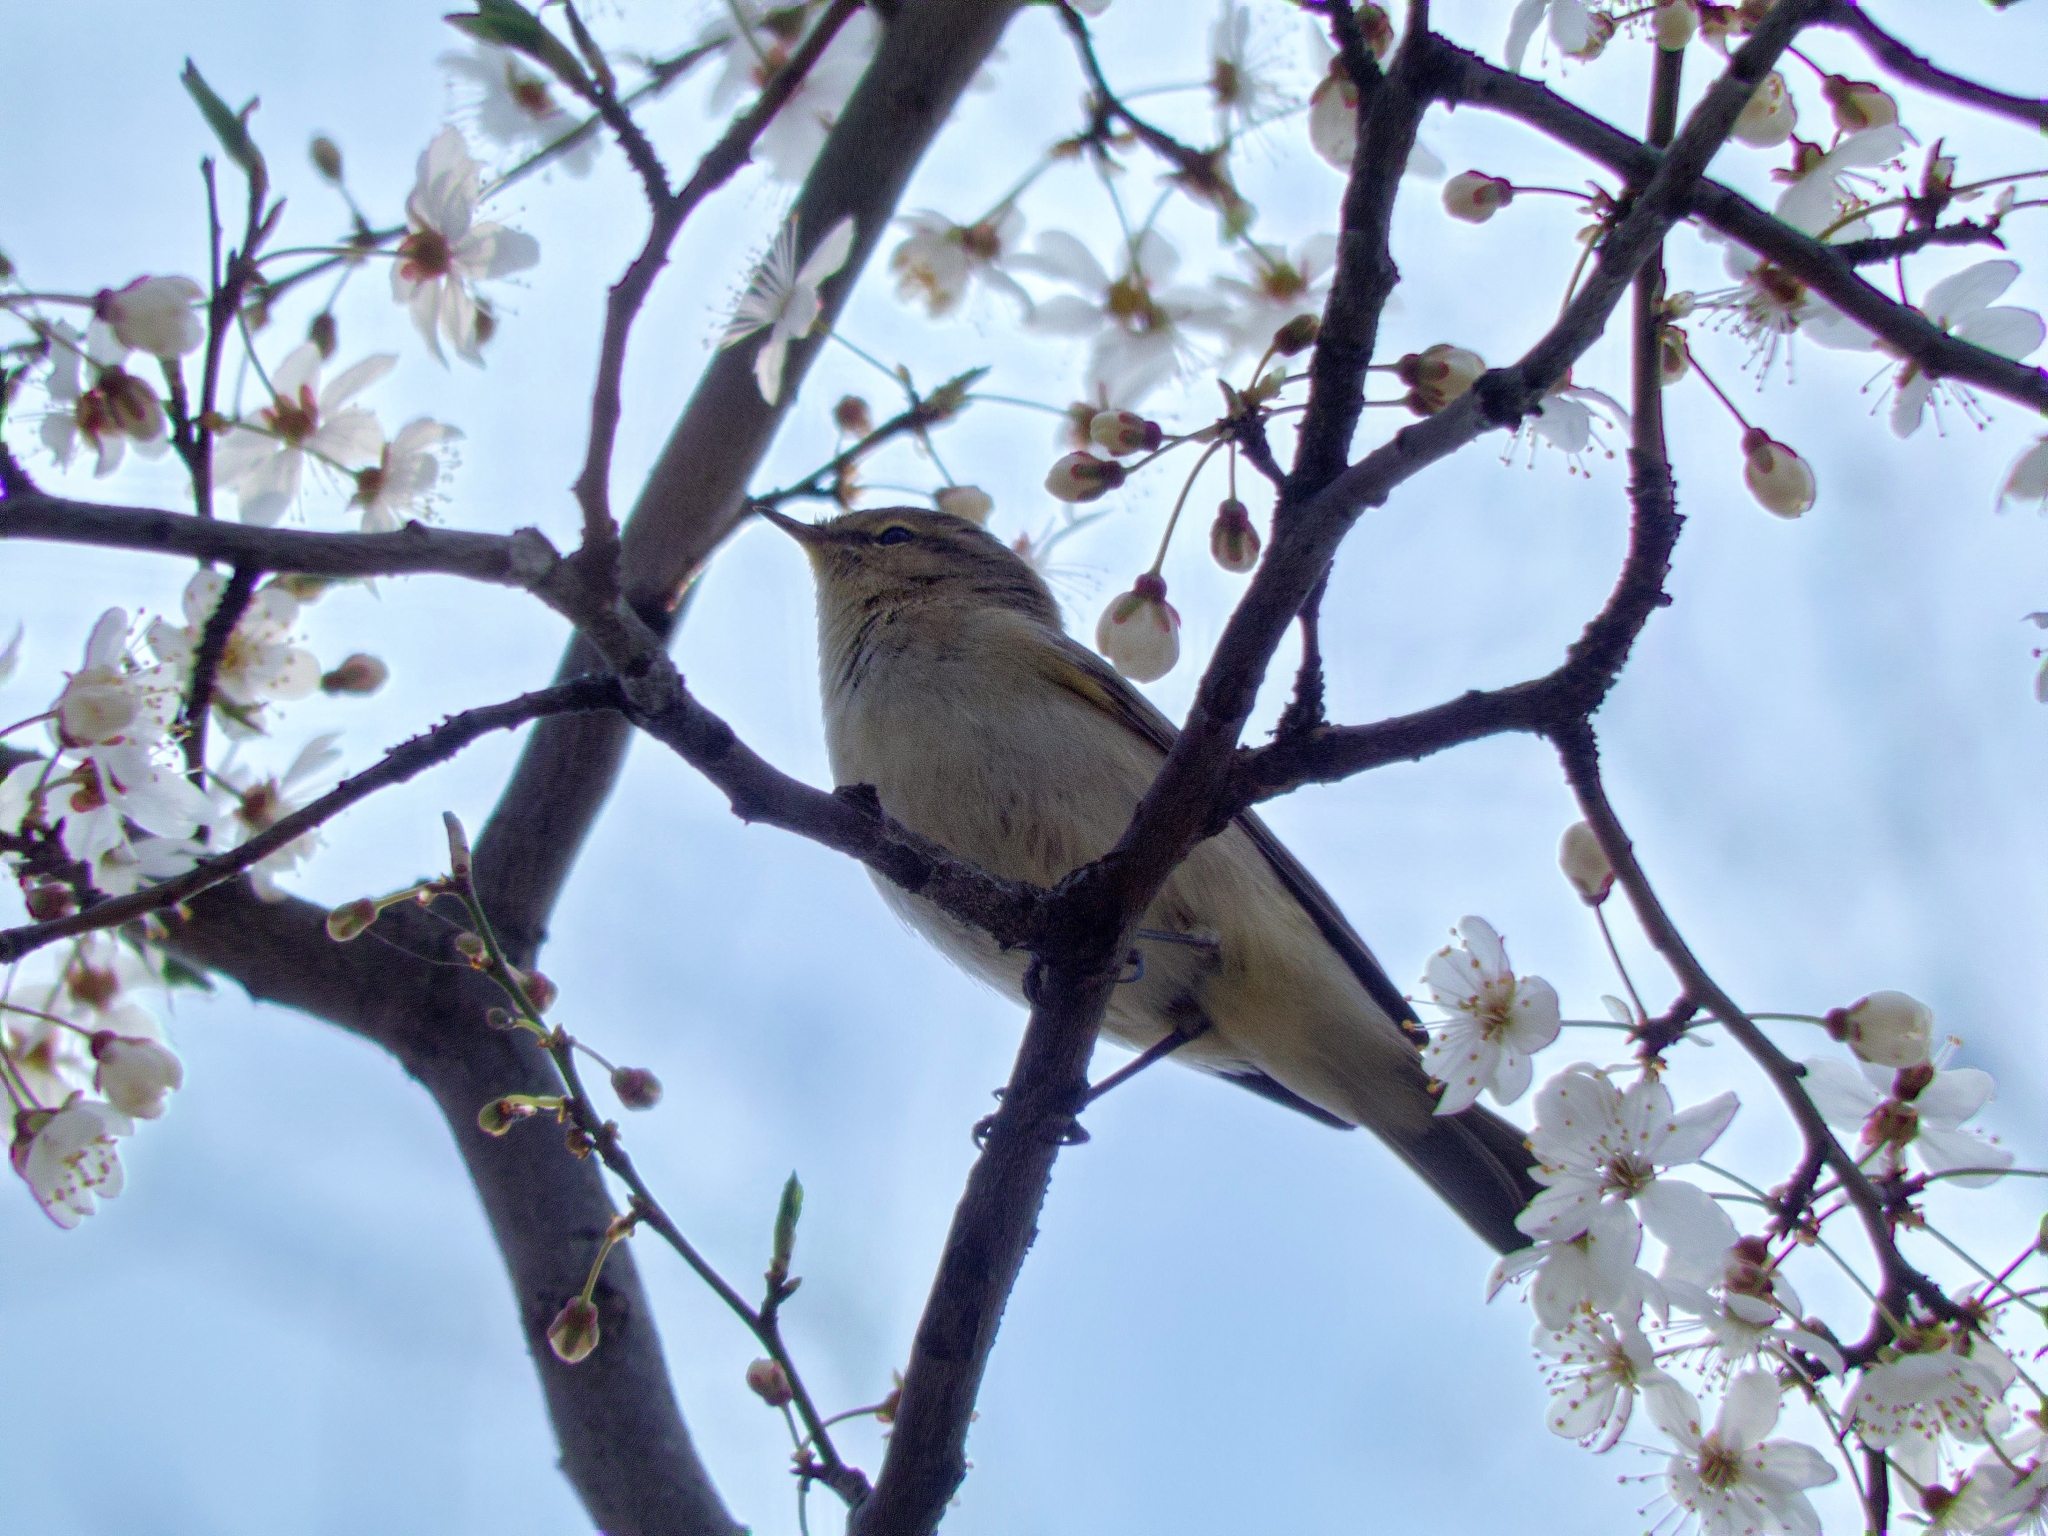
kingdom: Animalia
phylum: Chordata
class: Aves
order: Passeriformes
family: Phylloscopidae
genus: Phylloscopus
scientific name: Phylloscopus trochilus
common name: Willow warbler
